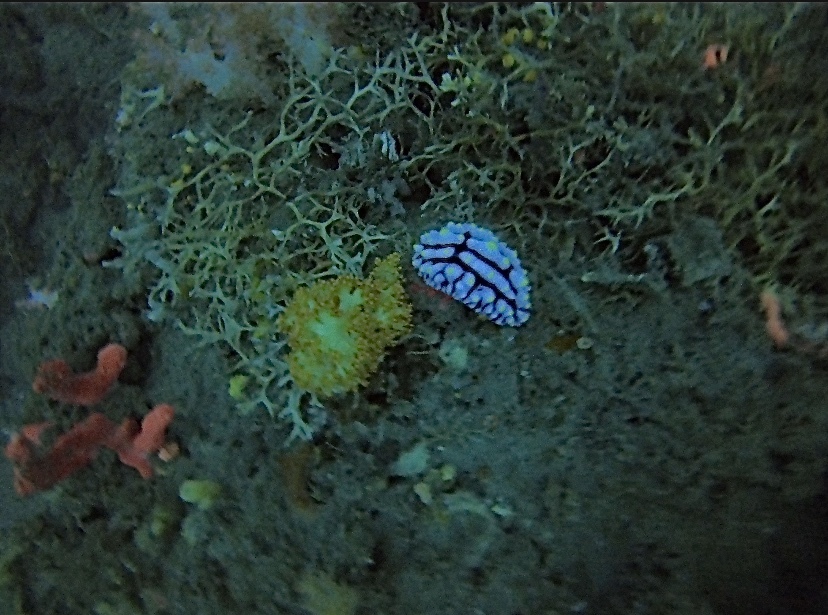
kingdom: Animalia
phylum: Mollusca
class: Gastropoda
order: Nudibranchia
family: Phyllidiidae
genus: Phyllidia
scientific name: Phyllidia varicosa
